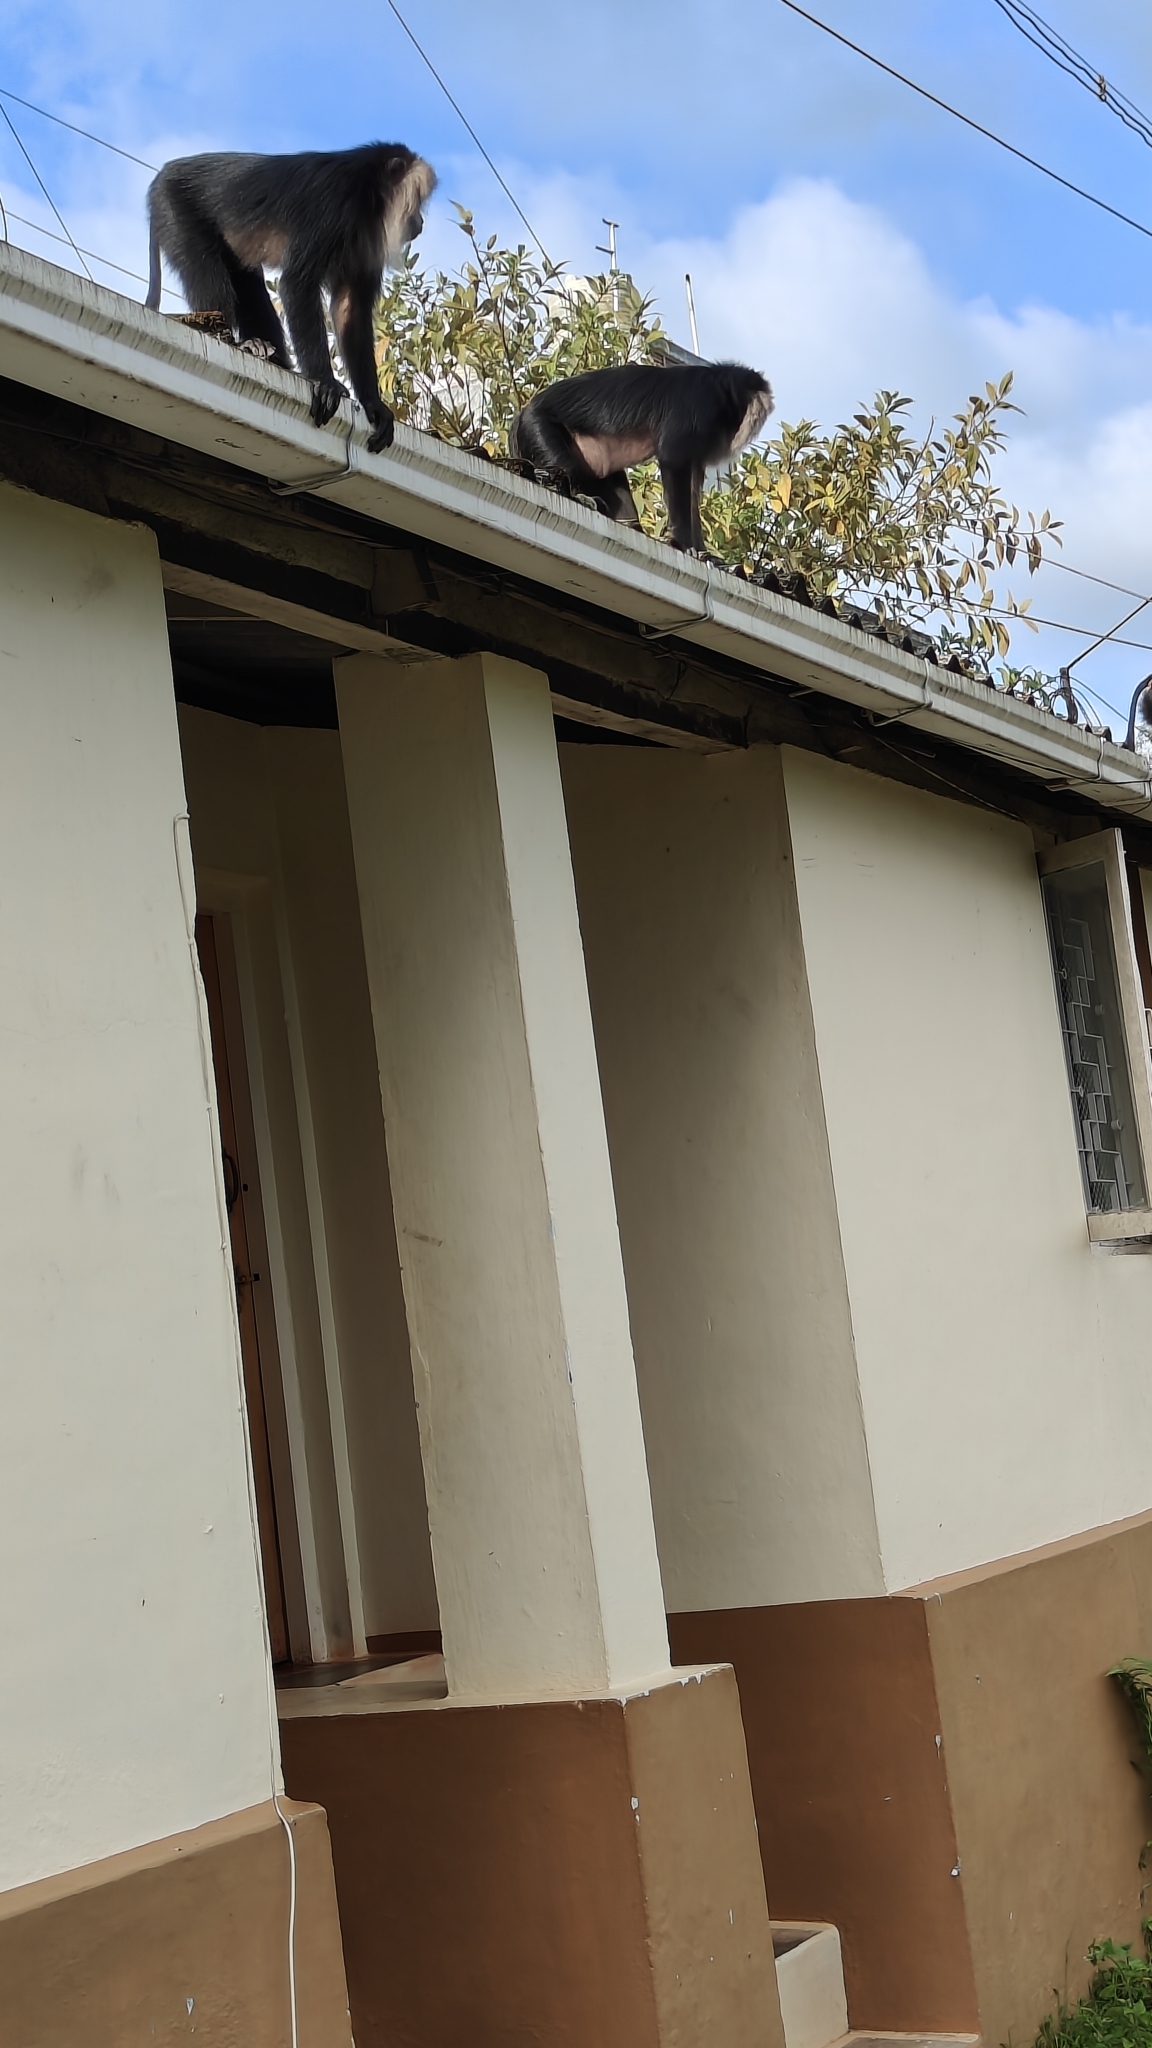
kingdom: Animalia
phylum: Chordata
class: Mammalia
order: Primates
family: Cercopithecidae
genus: Macaca
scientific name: Macaca silenus
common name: Lion-tailed macaque
